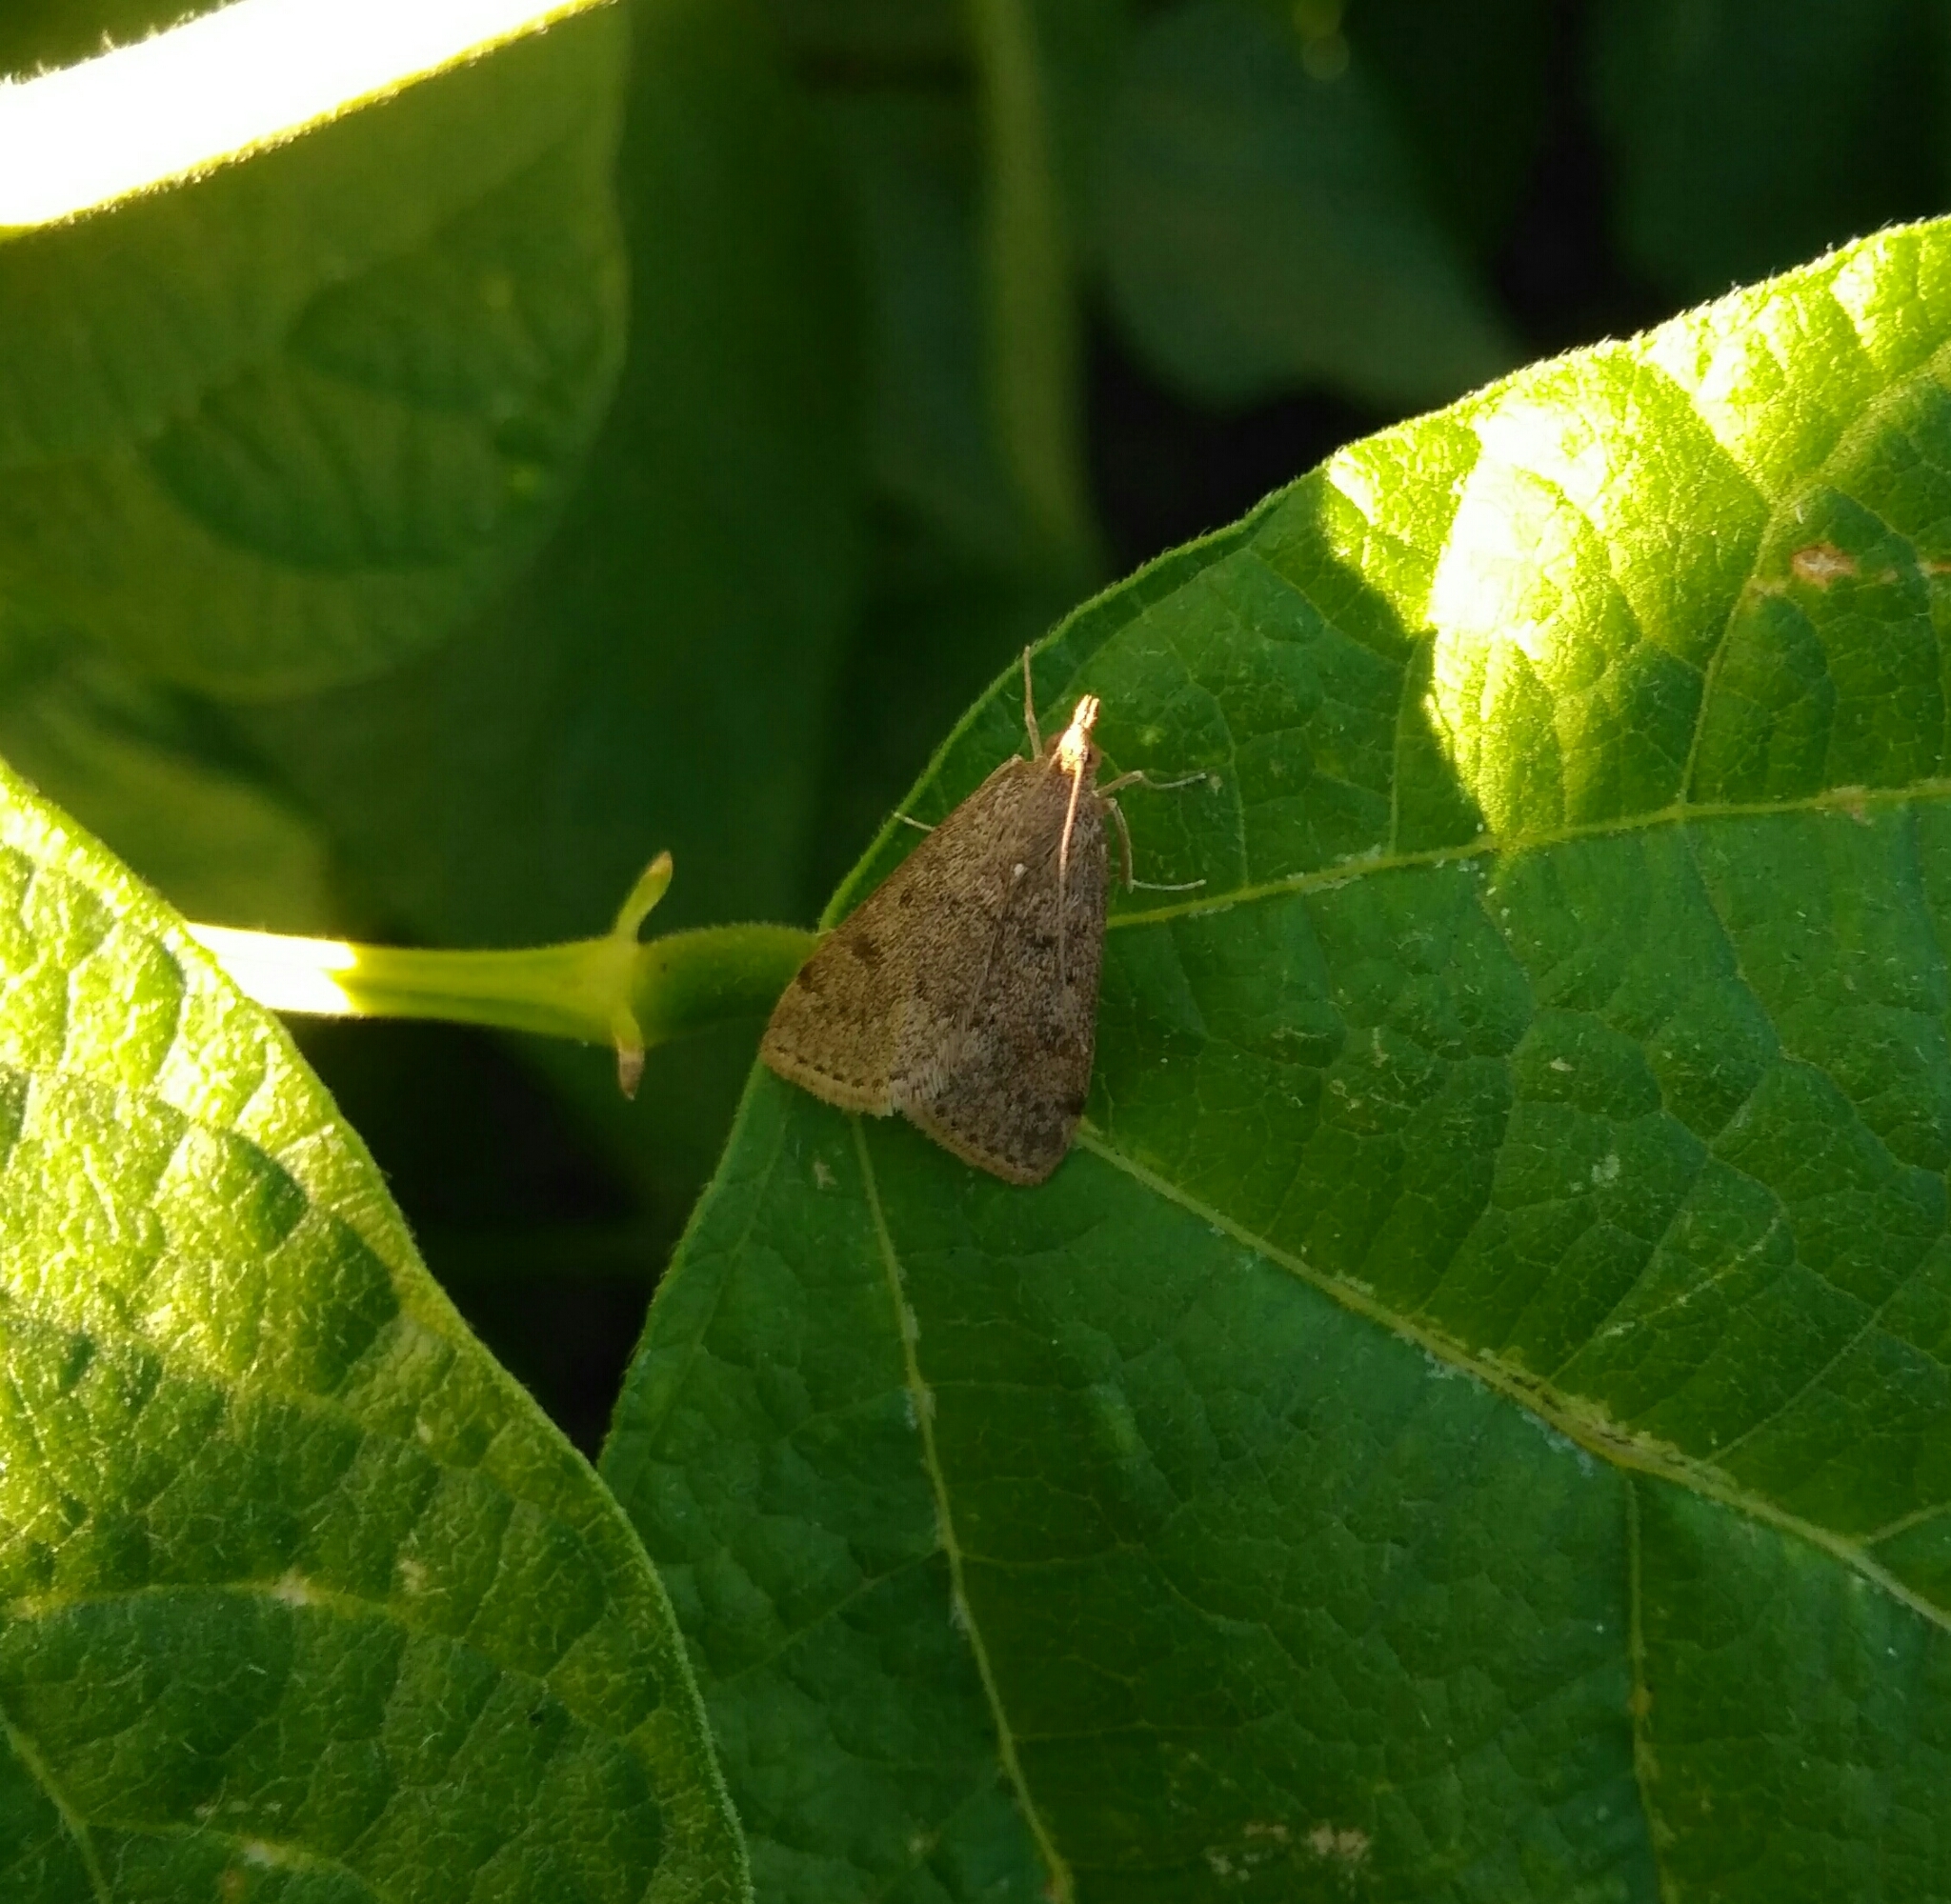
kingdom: Animalia
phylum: Arthropoda
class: Insecta
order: Lepidoptera
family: Crambidae
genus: Achyra
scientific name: Achyra rantalis
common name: Garden webworm
